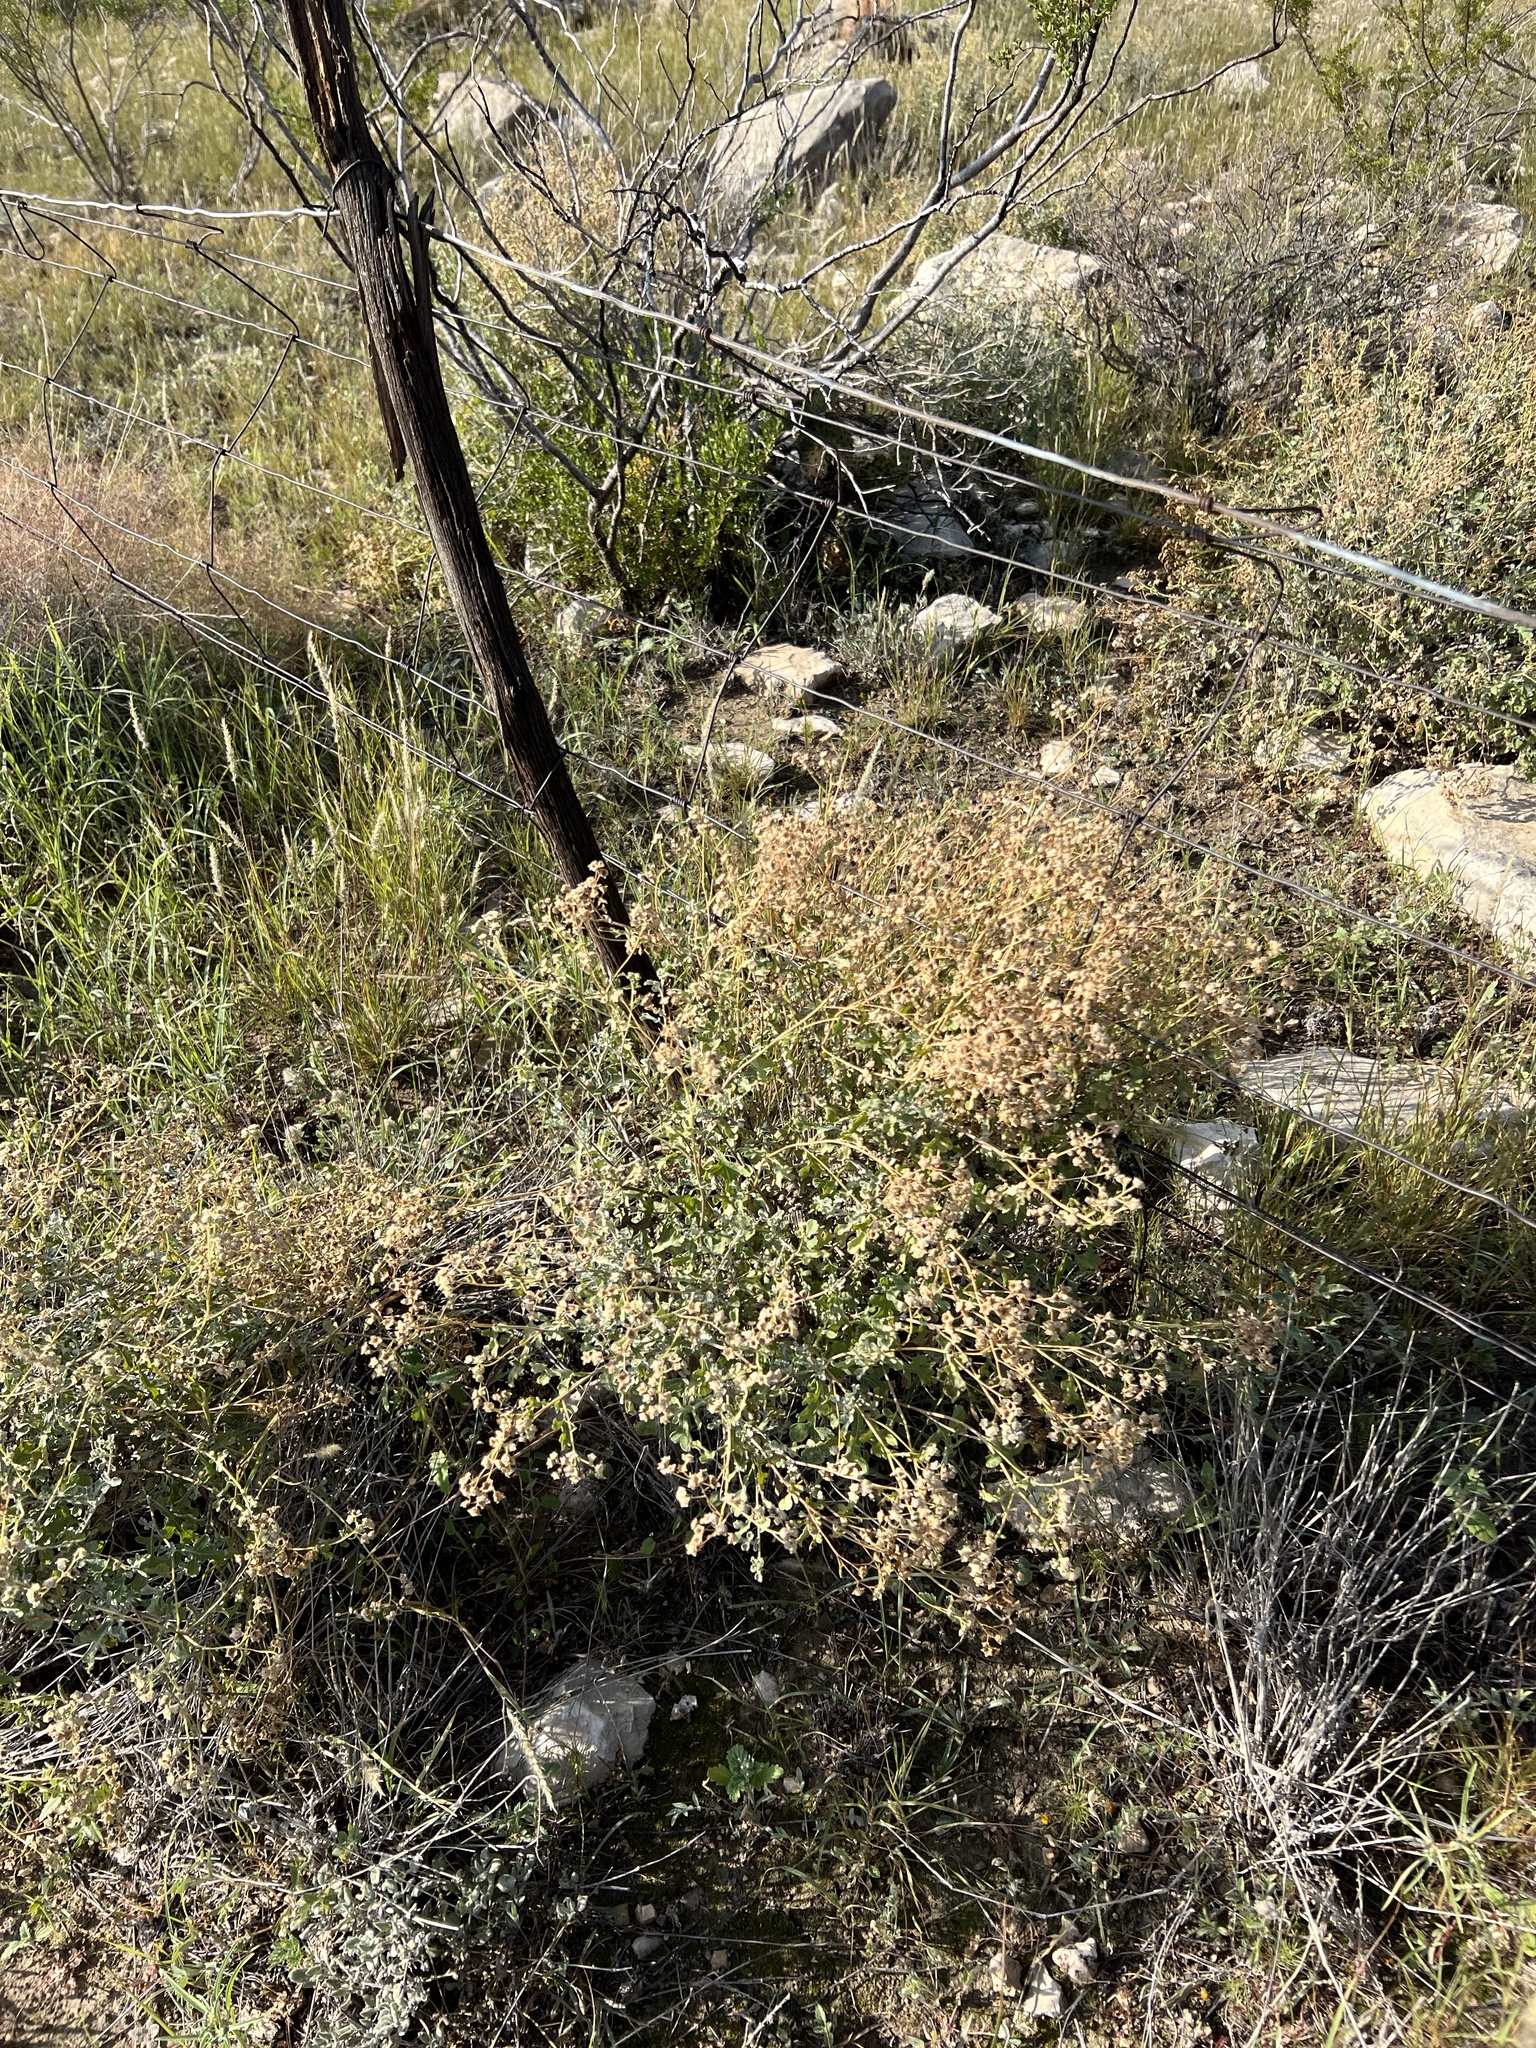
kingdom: Plantae
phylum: Tracheophyta
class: Magnoliopsida
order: Asterales
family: Asteraceae
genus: Parthenium
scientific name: Parthenium incanum
